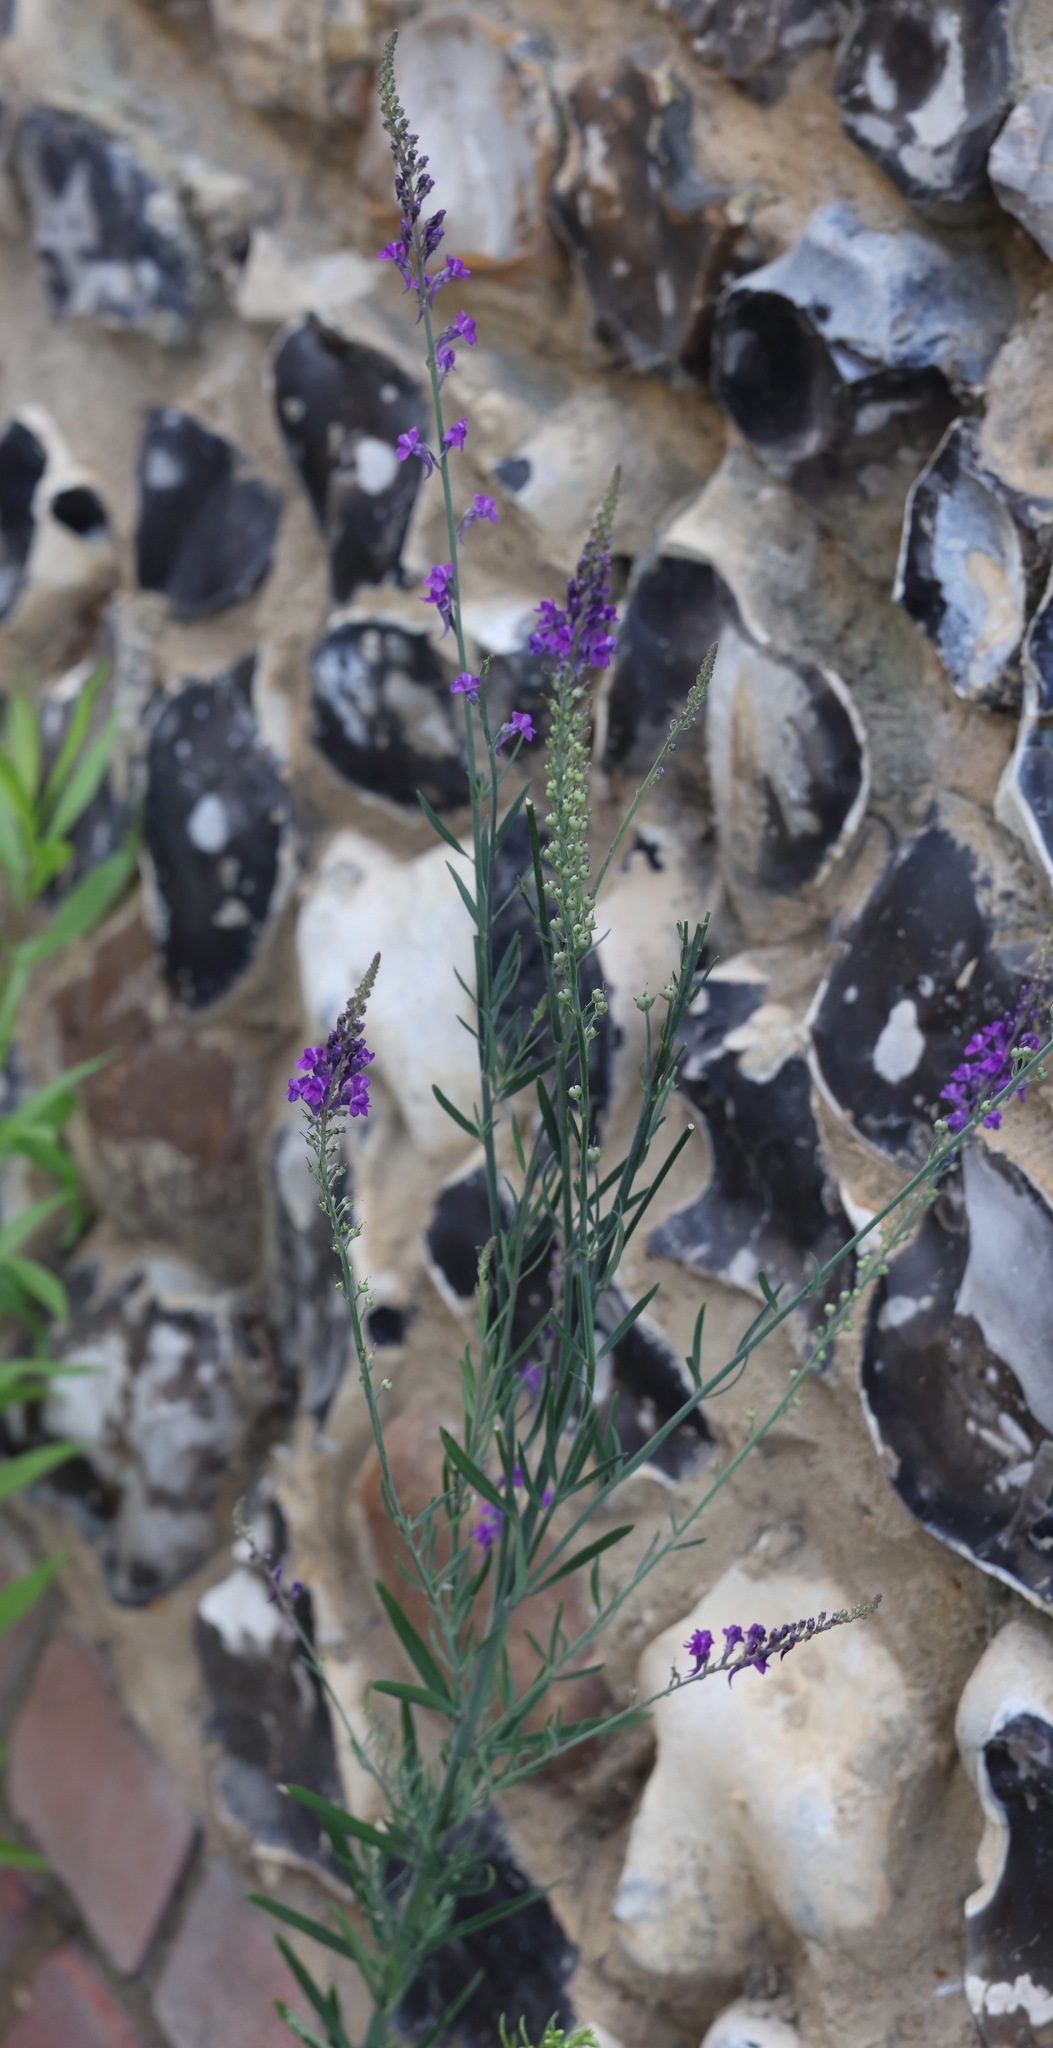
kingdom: Plantae
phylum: Tracheophyta
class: Magnoliopsida
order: Lamiales
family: Plantaginaceae
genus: Linaria
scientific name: Linaria purpurea
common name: Purple toadflax
